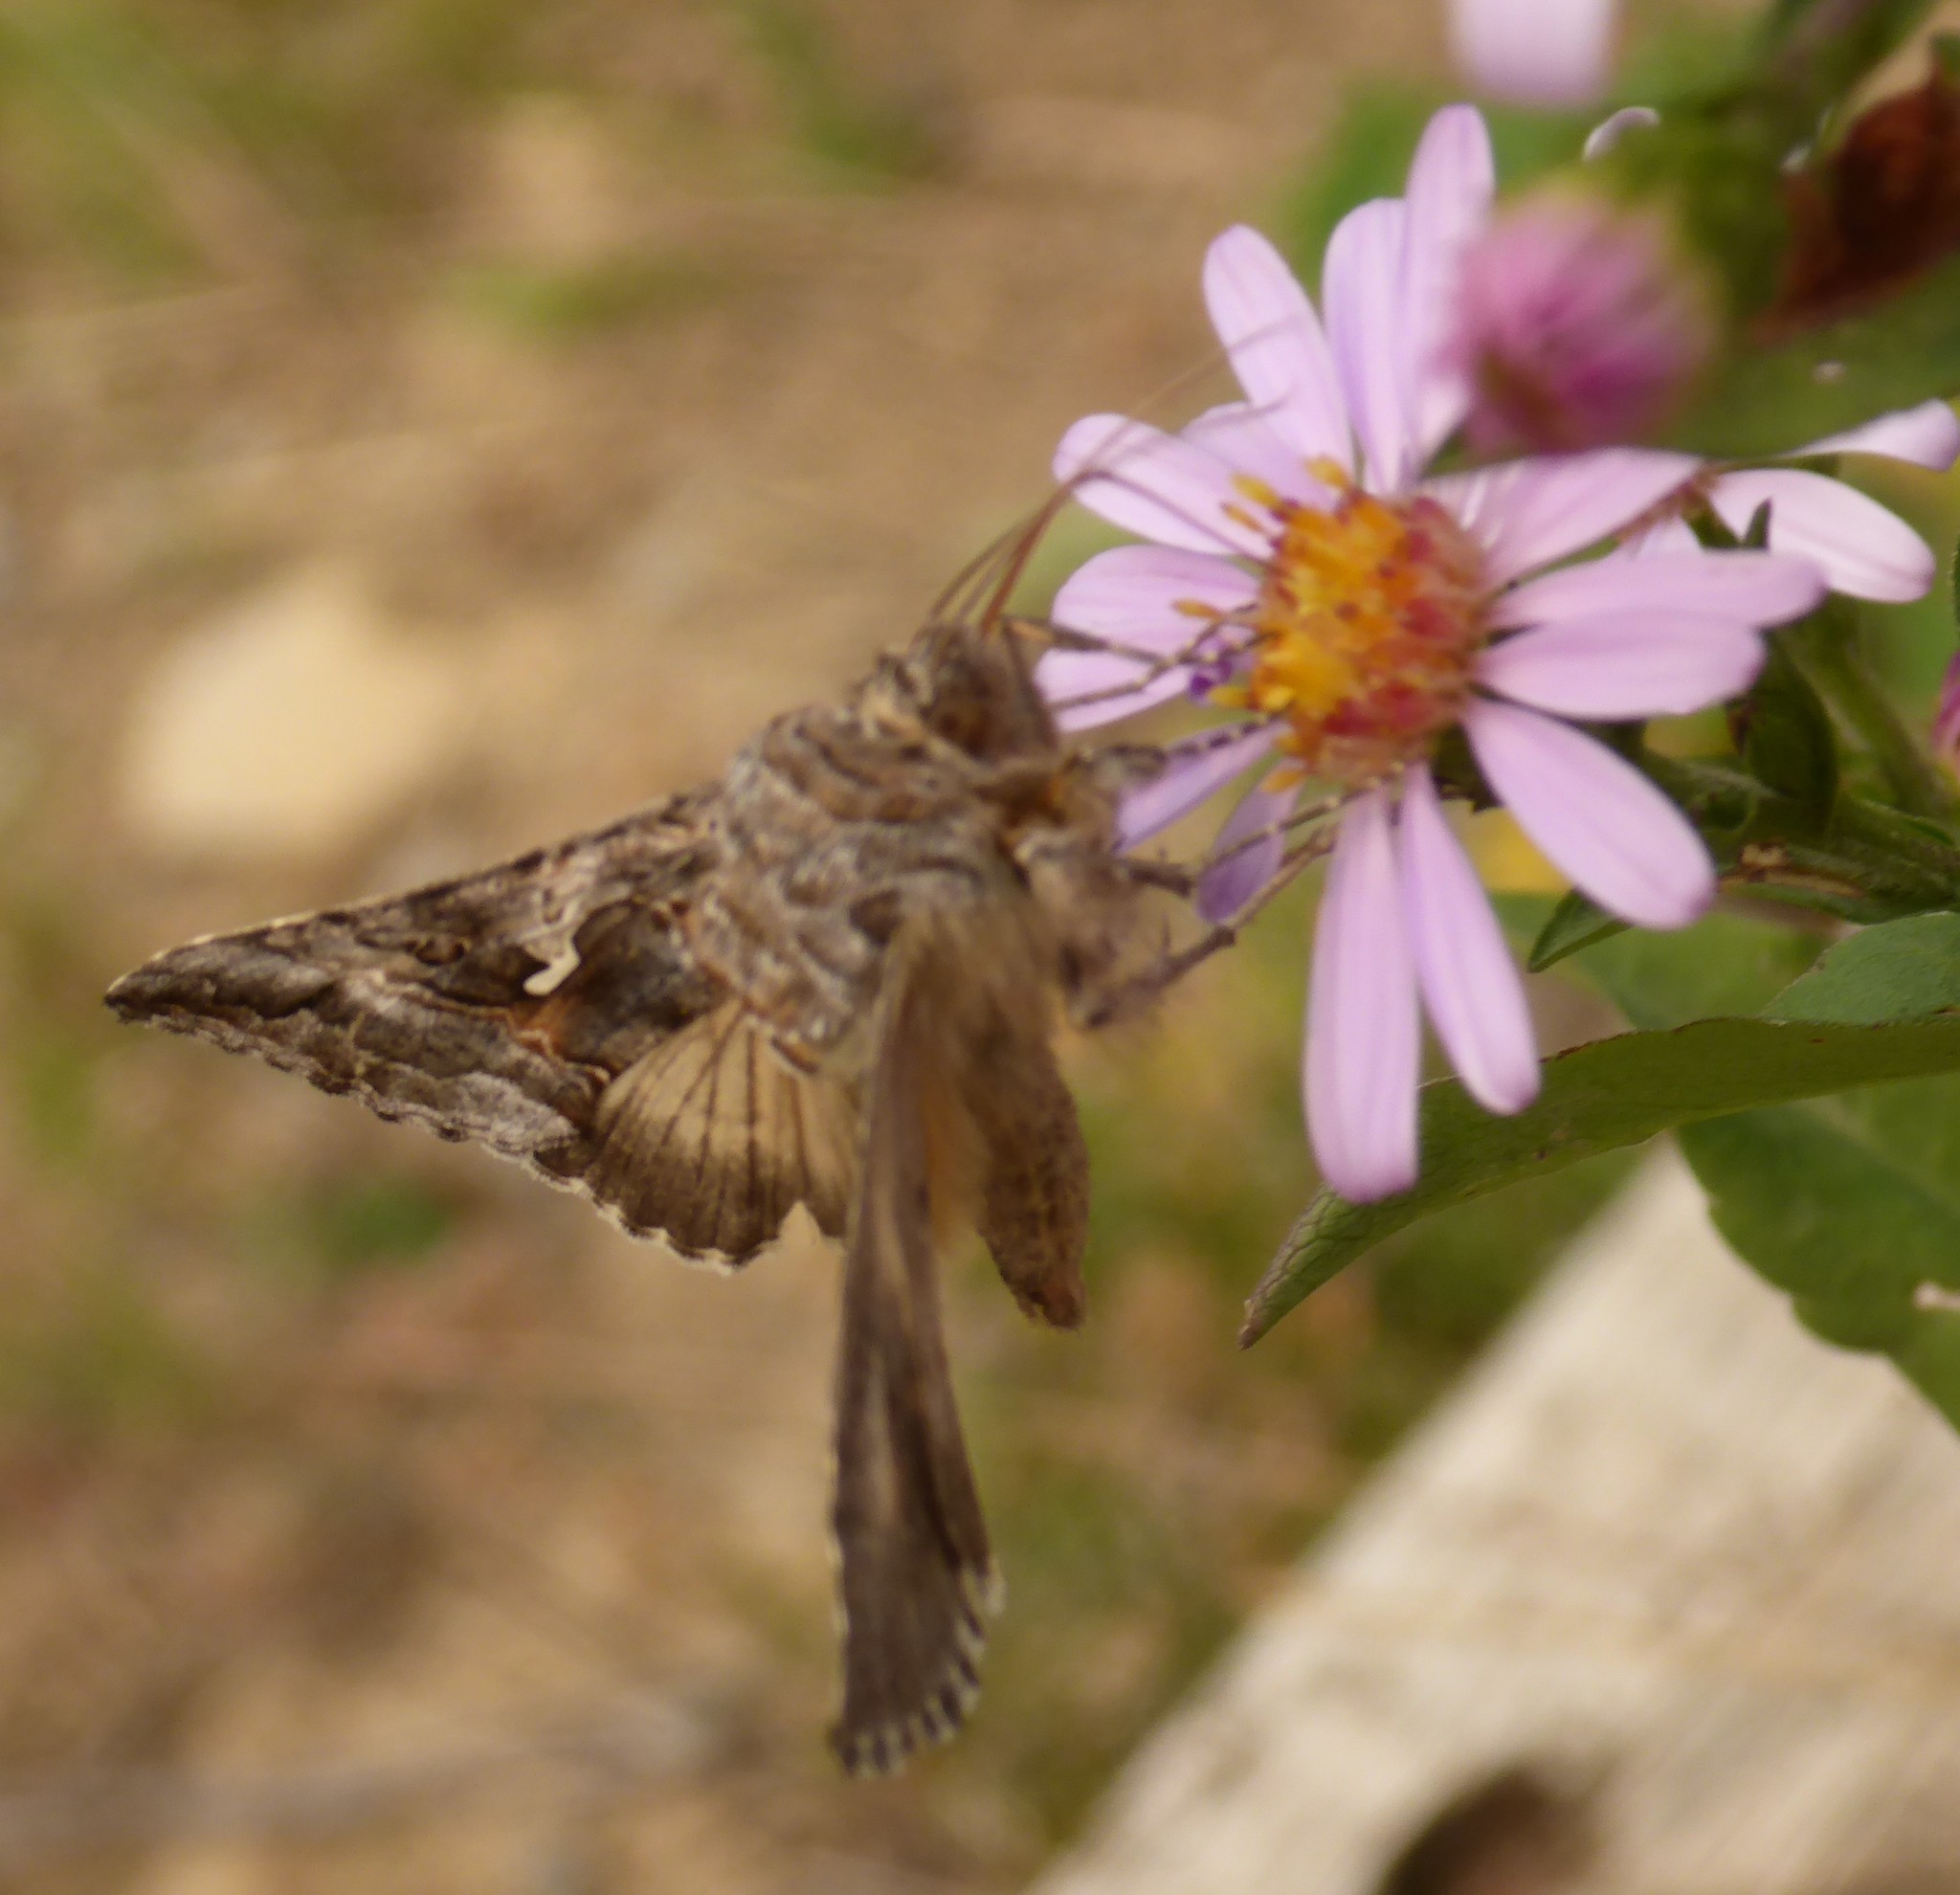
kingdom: Animalia
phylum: Arthropoda
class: Insecta
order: Lepidoptera
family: Noctuidae
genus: Autographa
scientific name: Autographa californica
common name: Alfalfa looper
